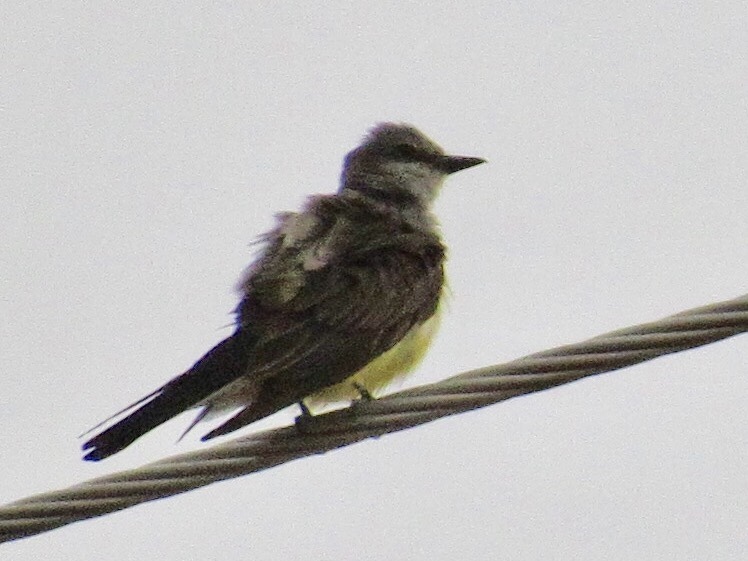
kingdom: Animalia
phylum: Chordata
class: Aves
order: Passeriformes
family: Tyrannidae
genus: Tyrannus
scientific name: Tyrannus verticalis
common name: Western kingbird
